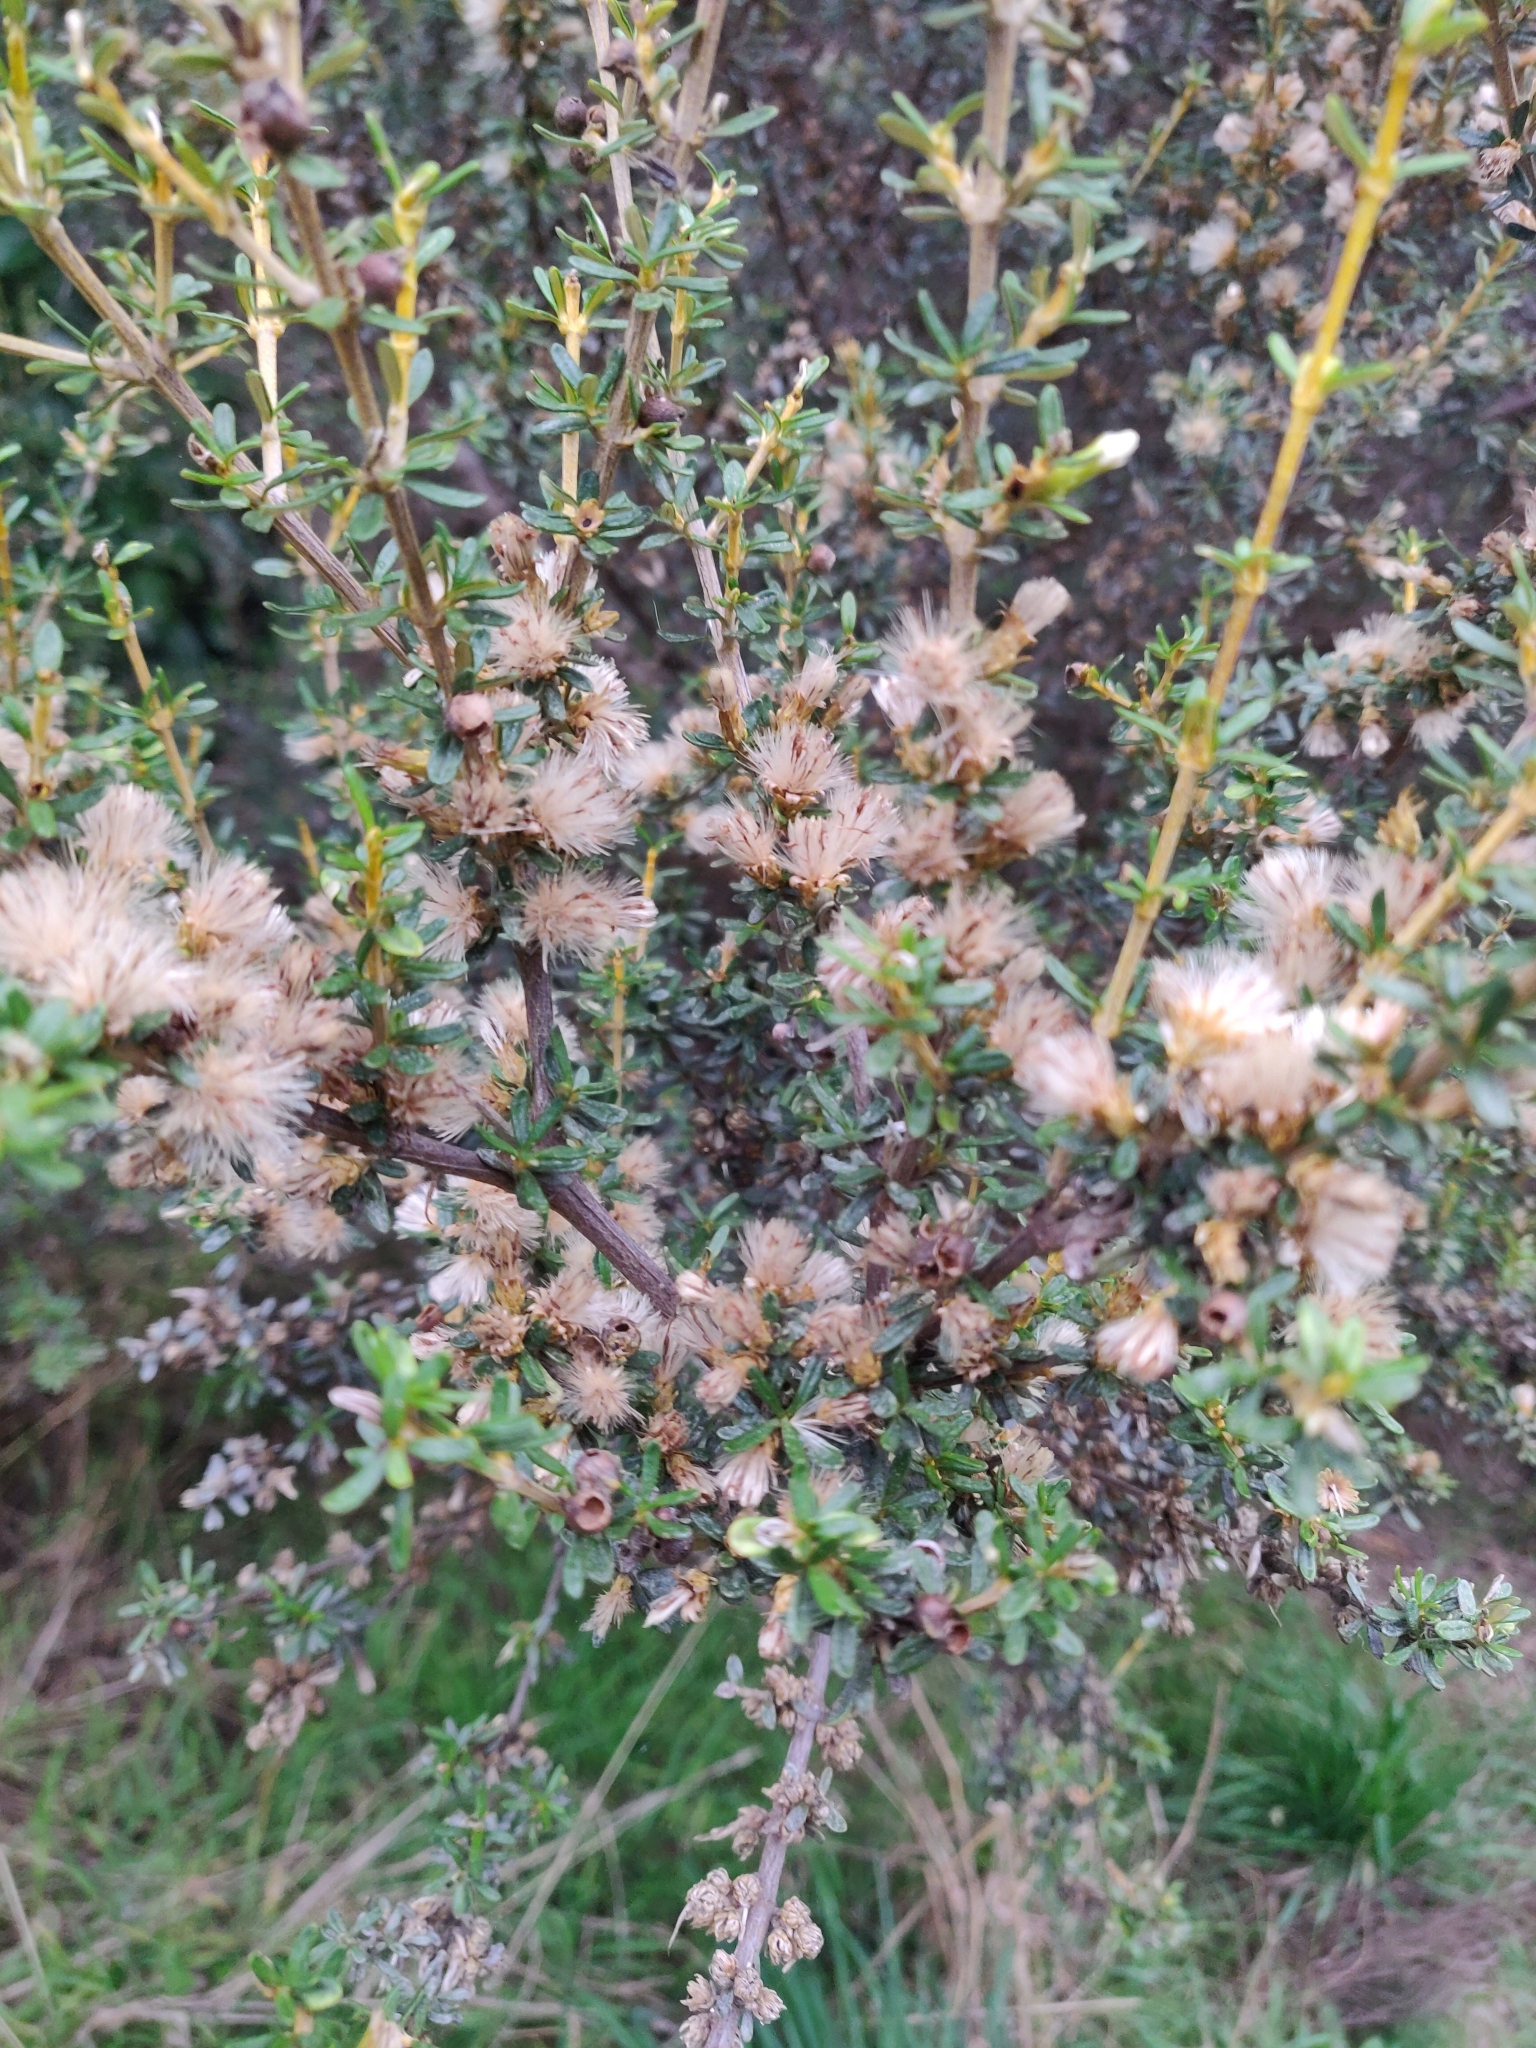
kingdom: Plantae
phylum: Tracheophyta
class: Magnoliopsida
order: Asterales
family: Asteraceae
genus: Olearia
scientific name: Olearia solandri
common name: Coastal daisybush
